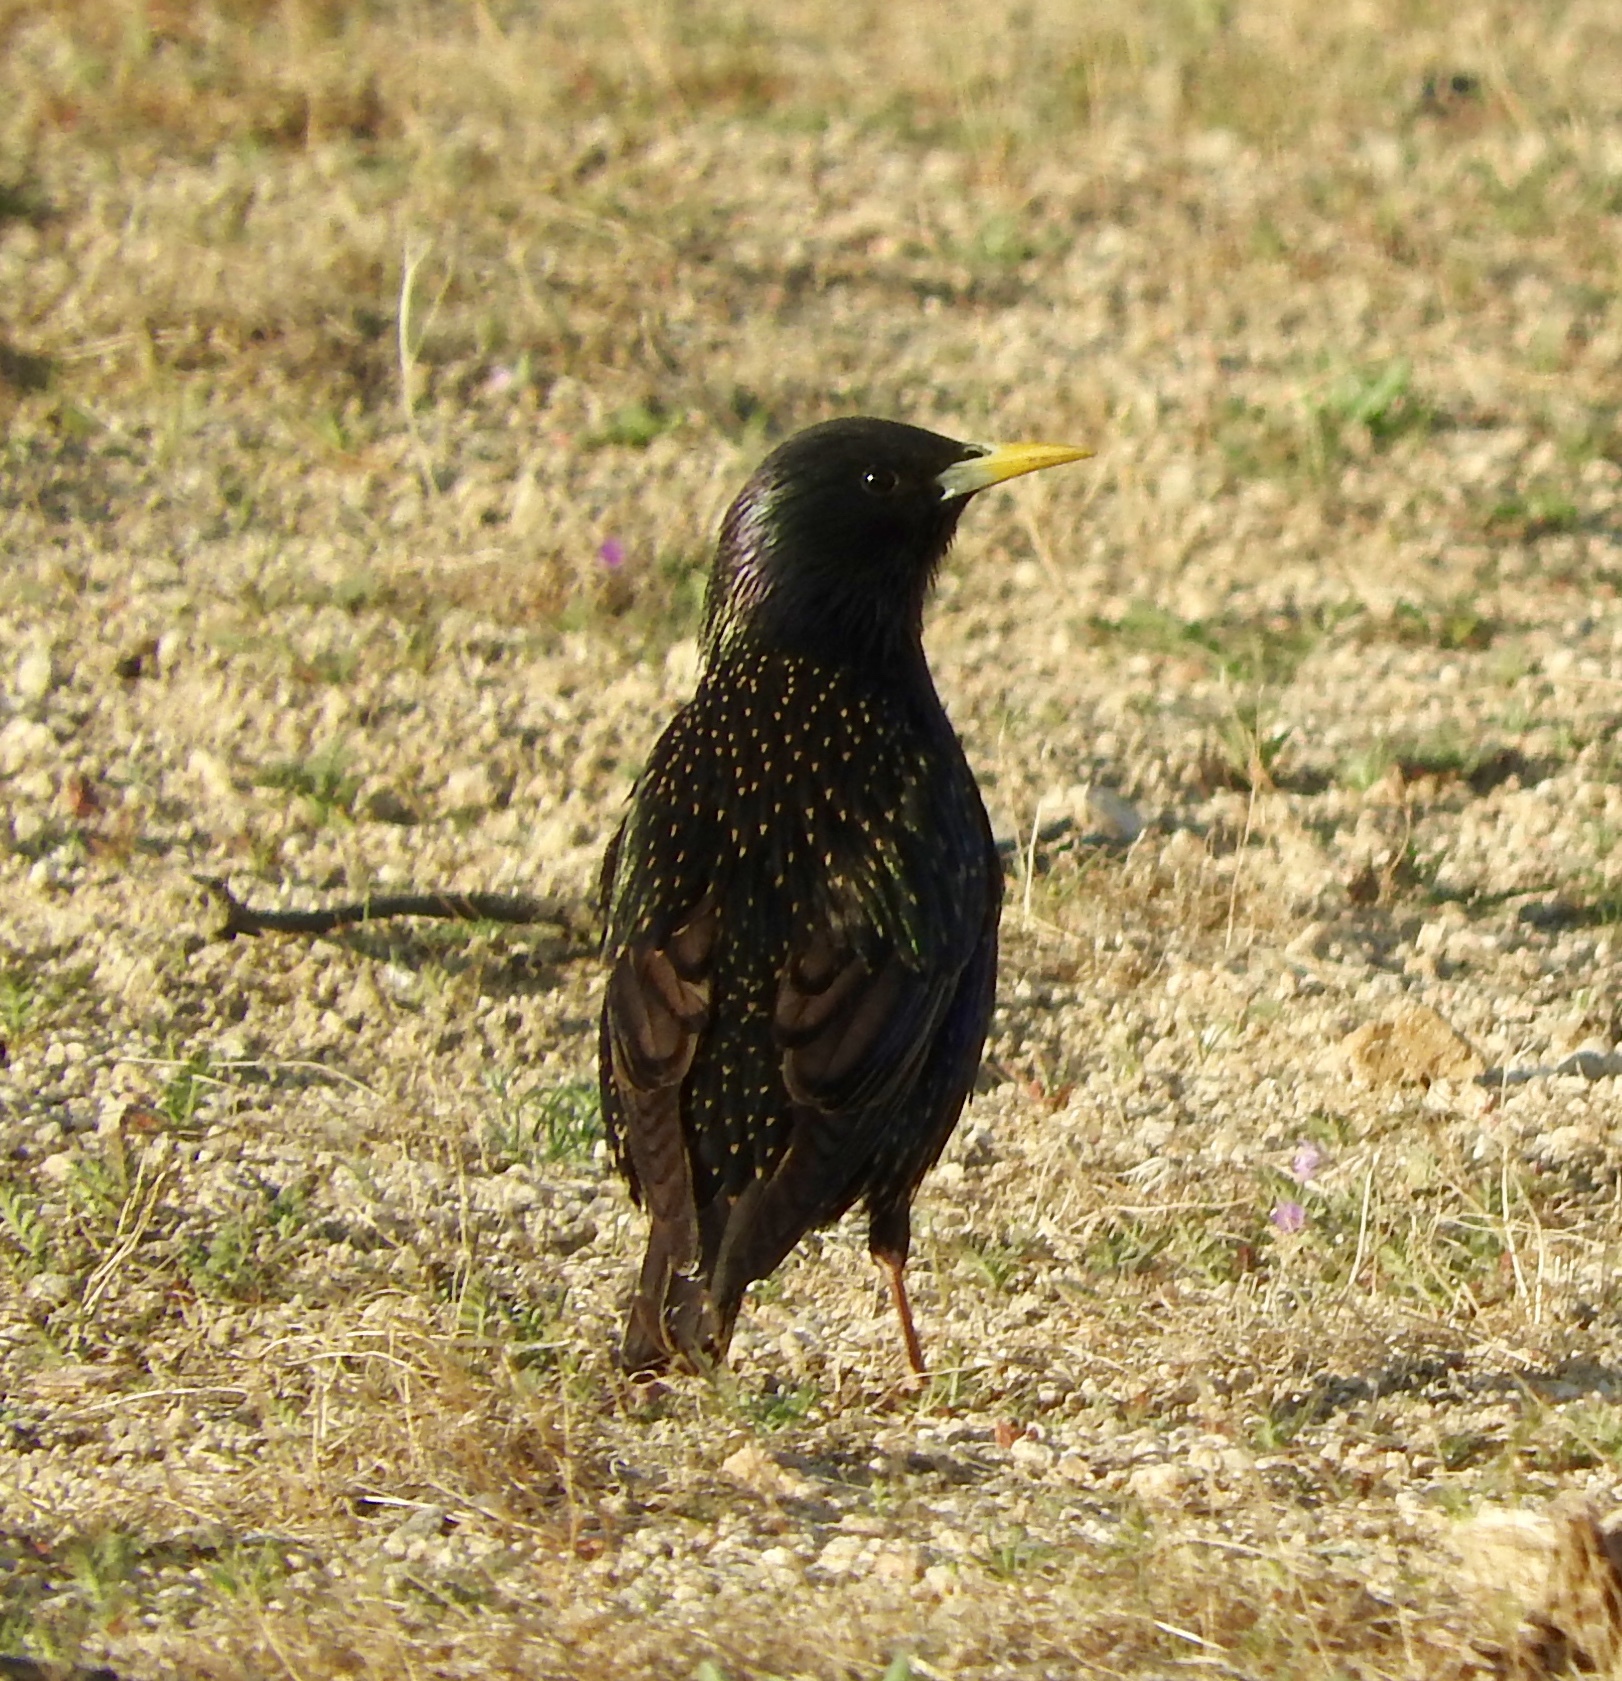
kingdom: Animalia
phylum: Chordata
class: Aves
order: Passeriformes
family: Sturnidae
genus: Sturnus
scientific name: Sturnus vulgaris
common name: Common starling
